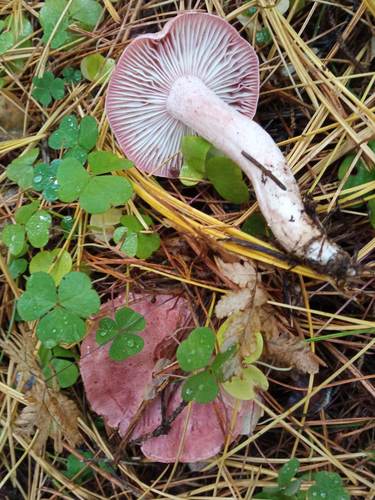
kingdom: Fungi
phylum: Basidiomycota
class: Agaricomycetes
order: Agaricales
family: Hygrophoraceae
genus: Hygrophorus
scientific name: Hygrophorus erubescens
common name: Blotched woodwax
